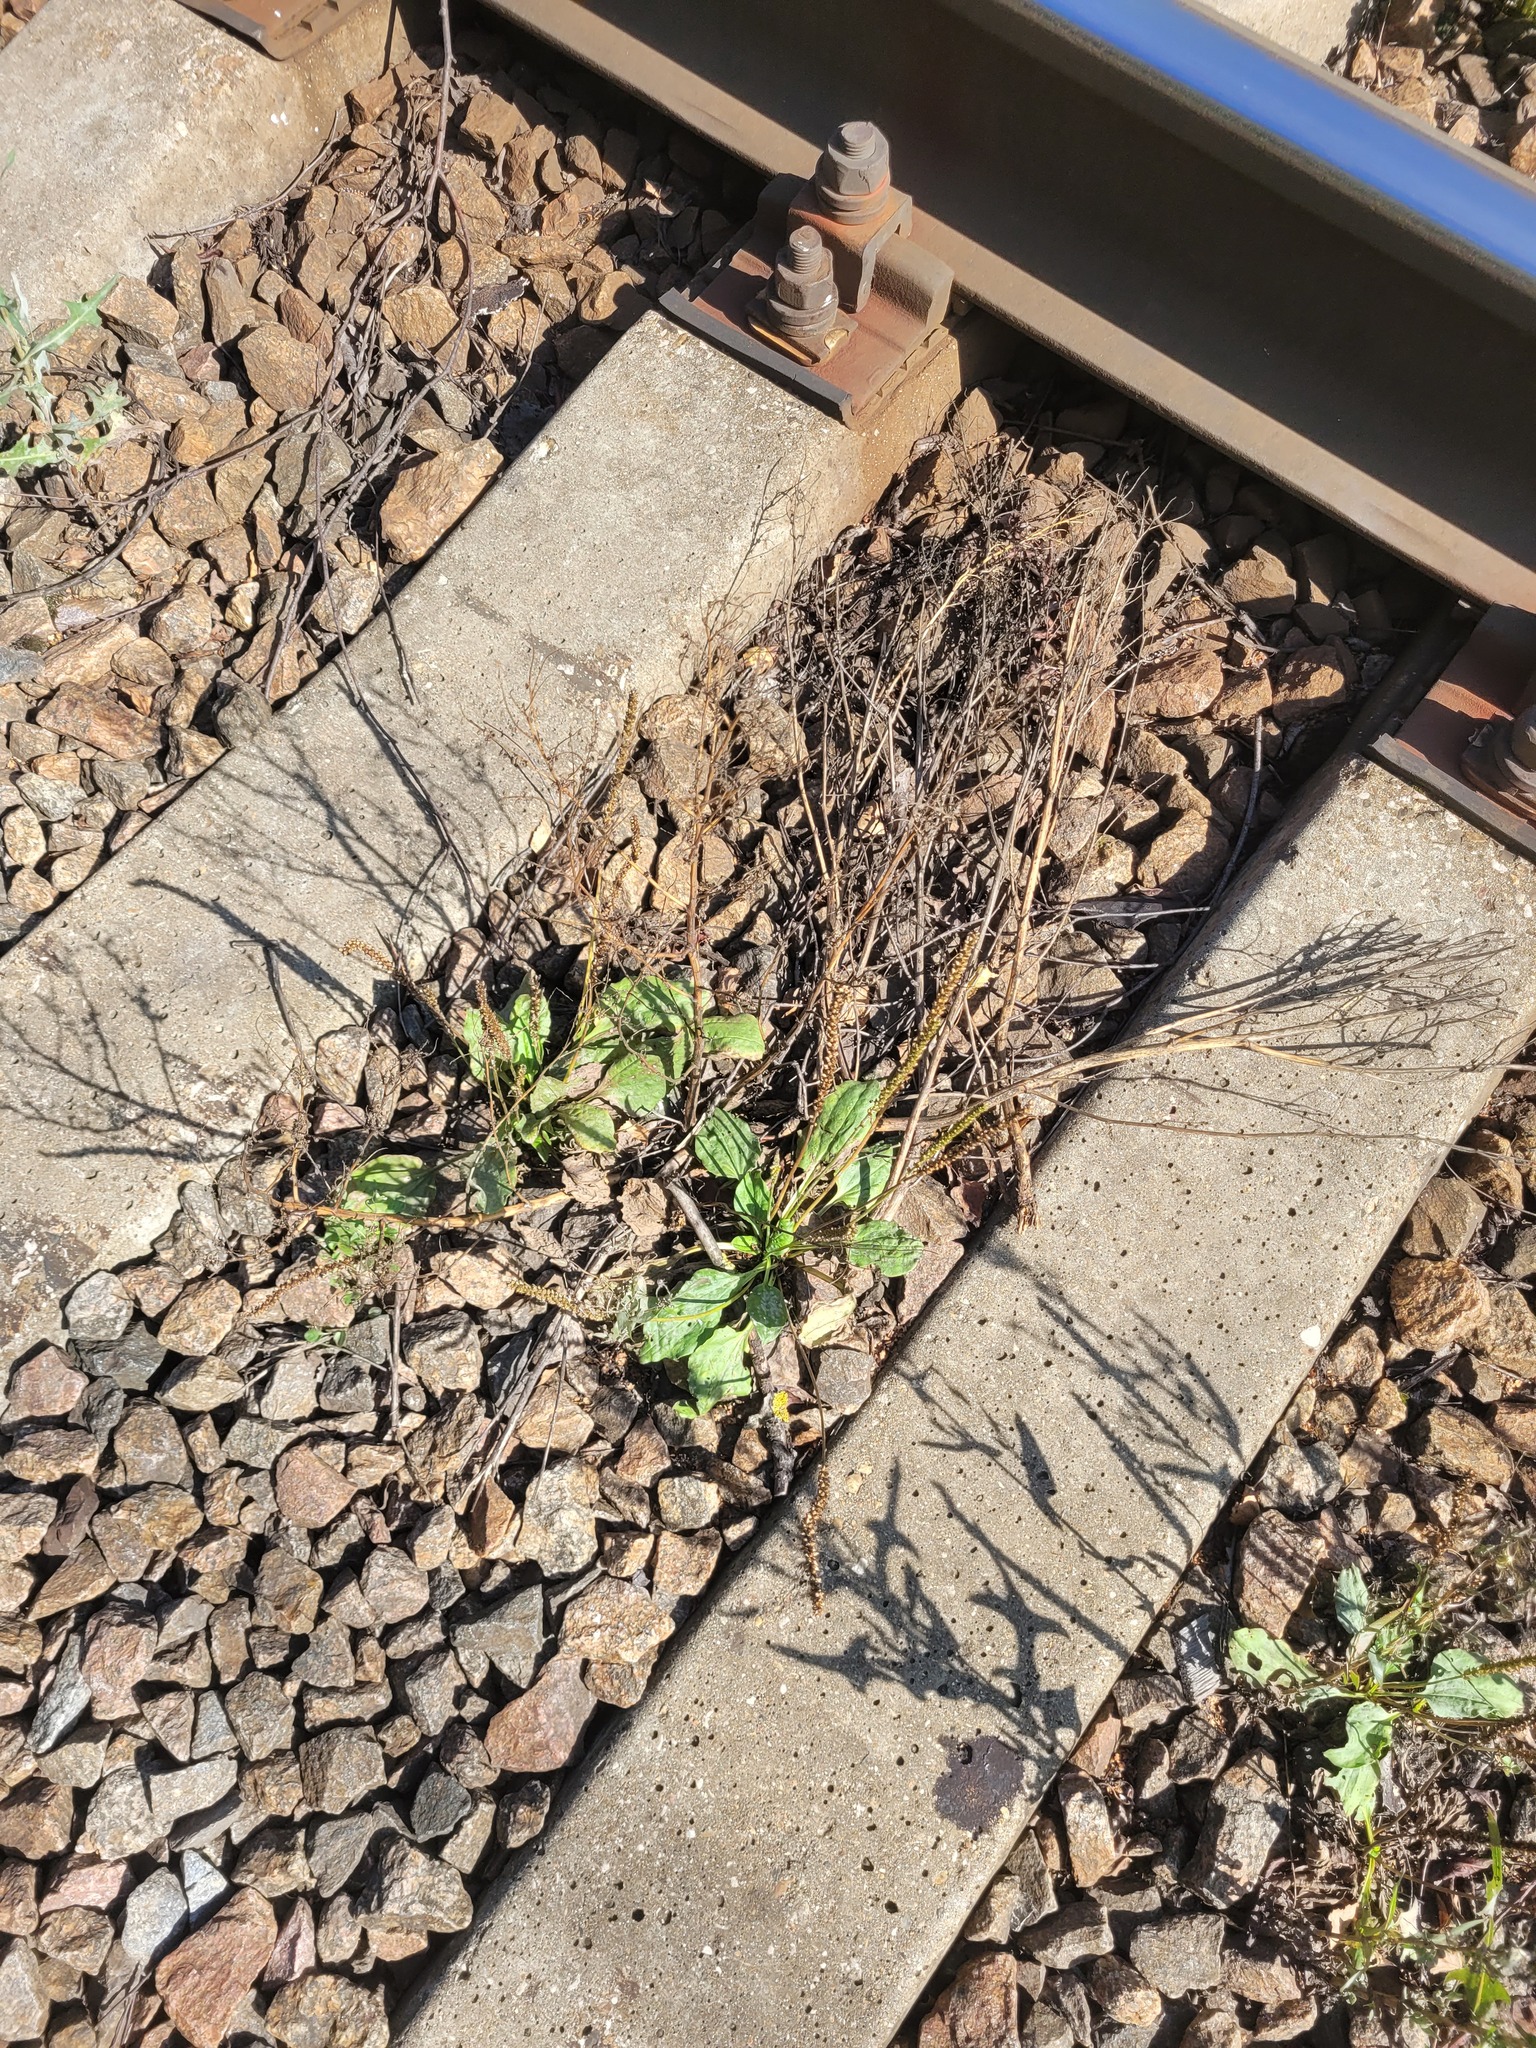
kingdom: Plantae
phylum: Tracheophyta
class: Magnoliopsida
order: Lamiales
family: Plantaginaceae
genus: Plantago
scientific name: Plantago major
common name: Common plantain
